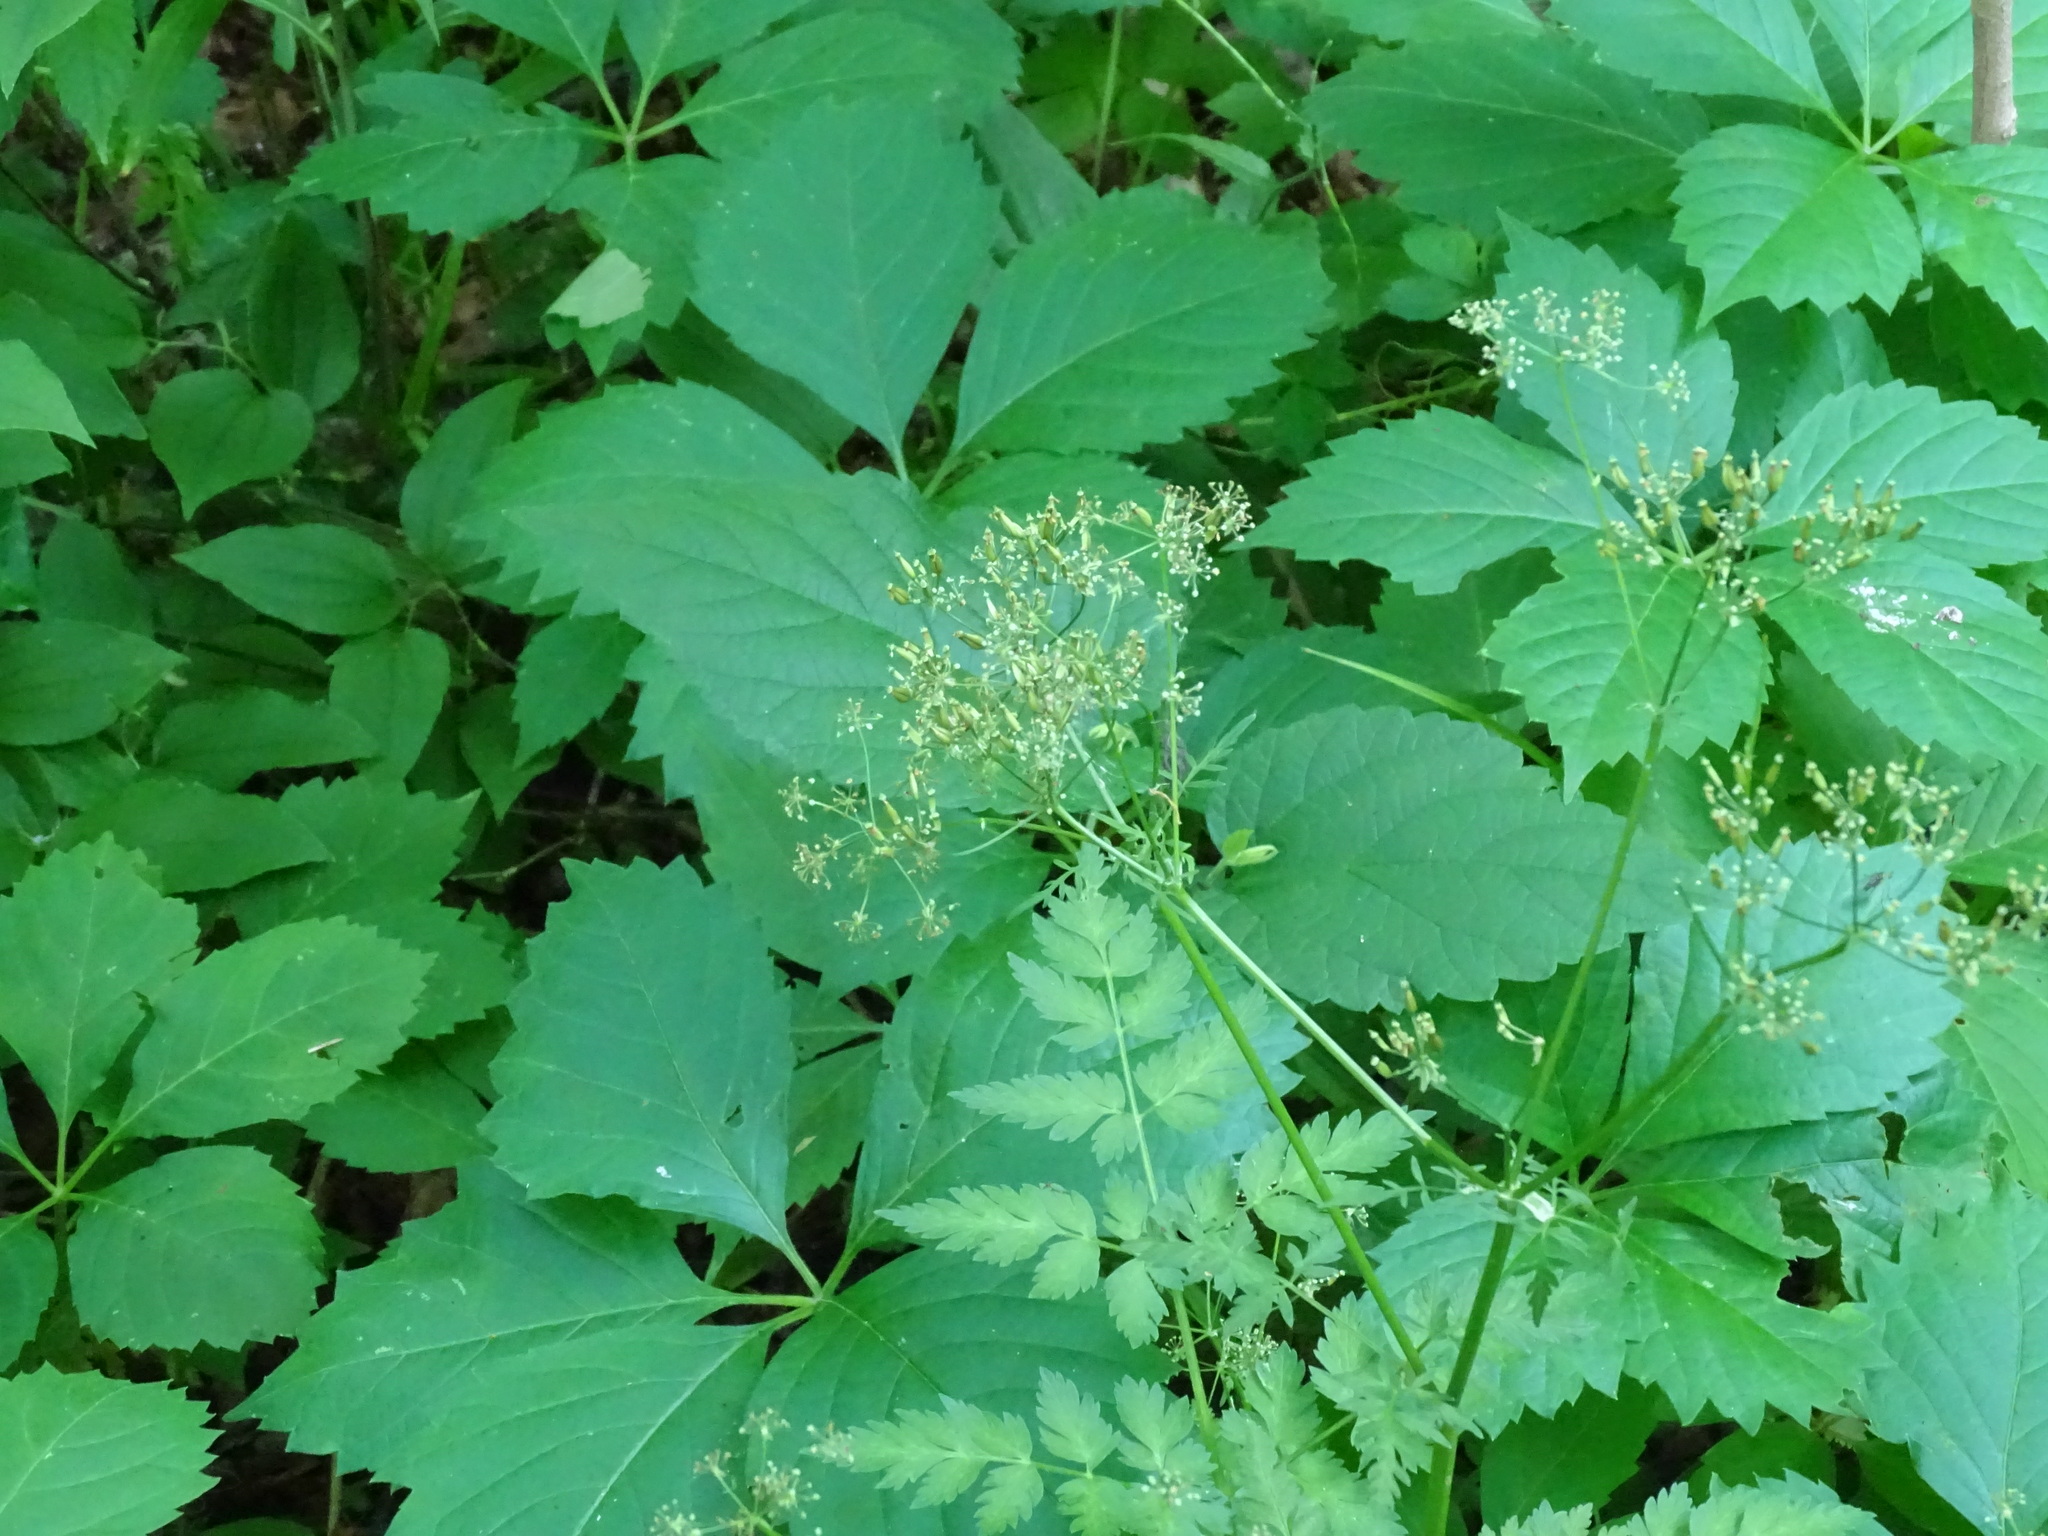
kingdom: Plantae
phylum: Tracheophyta
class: Magnoliopsida
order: Apiales
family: Apiaceae
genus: Torilis
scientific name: Torilis japonica
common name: Upright hedge-parsley
